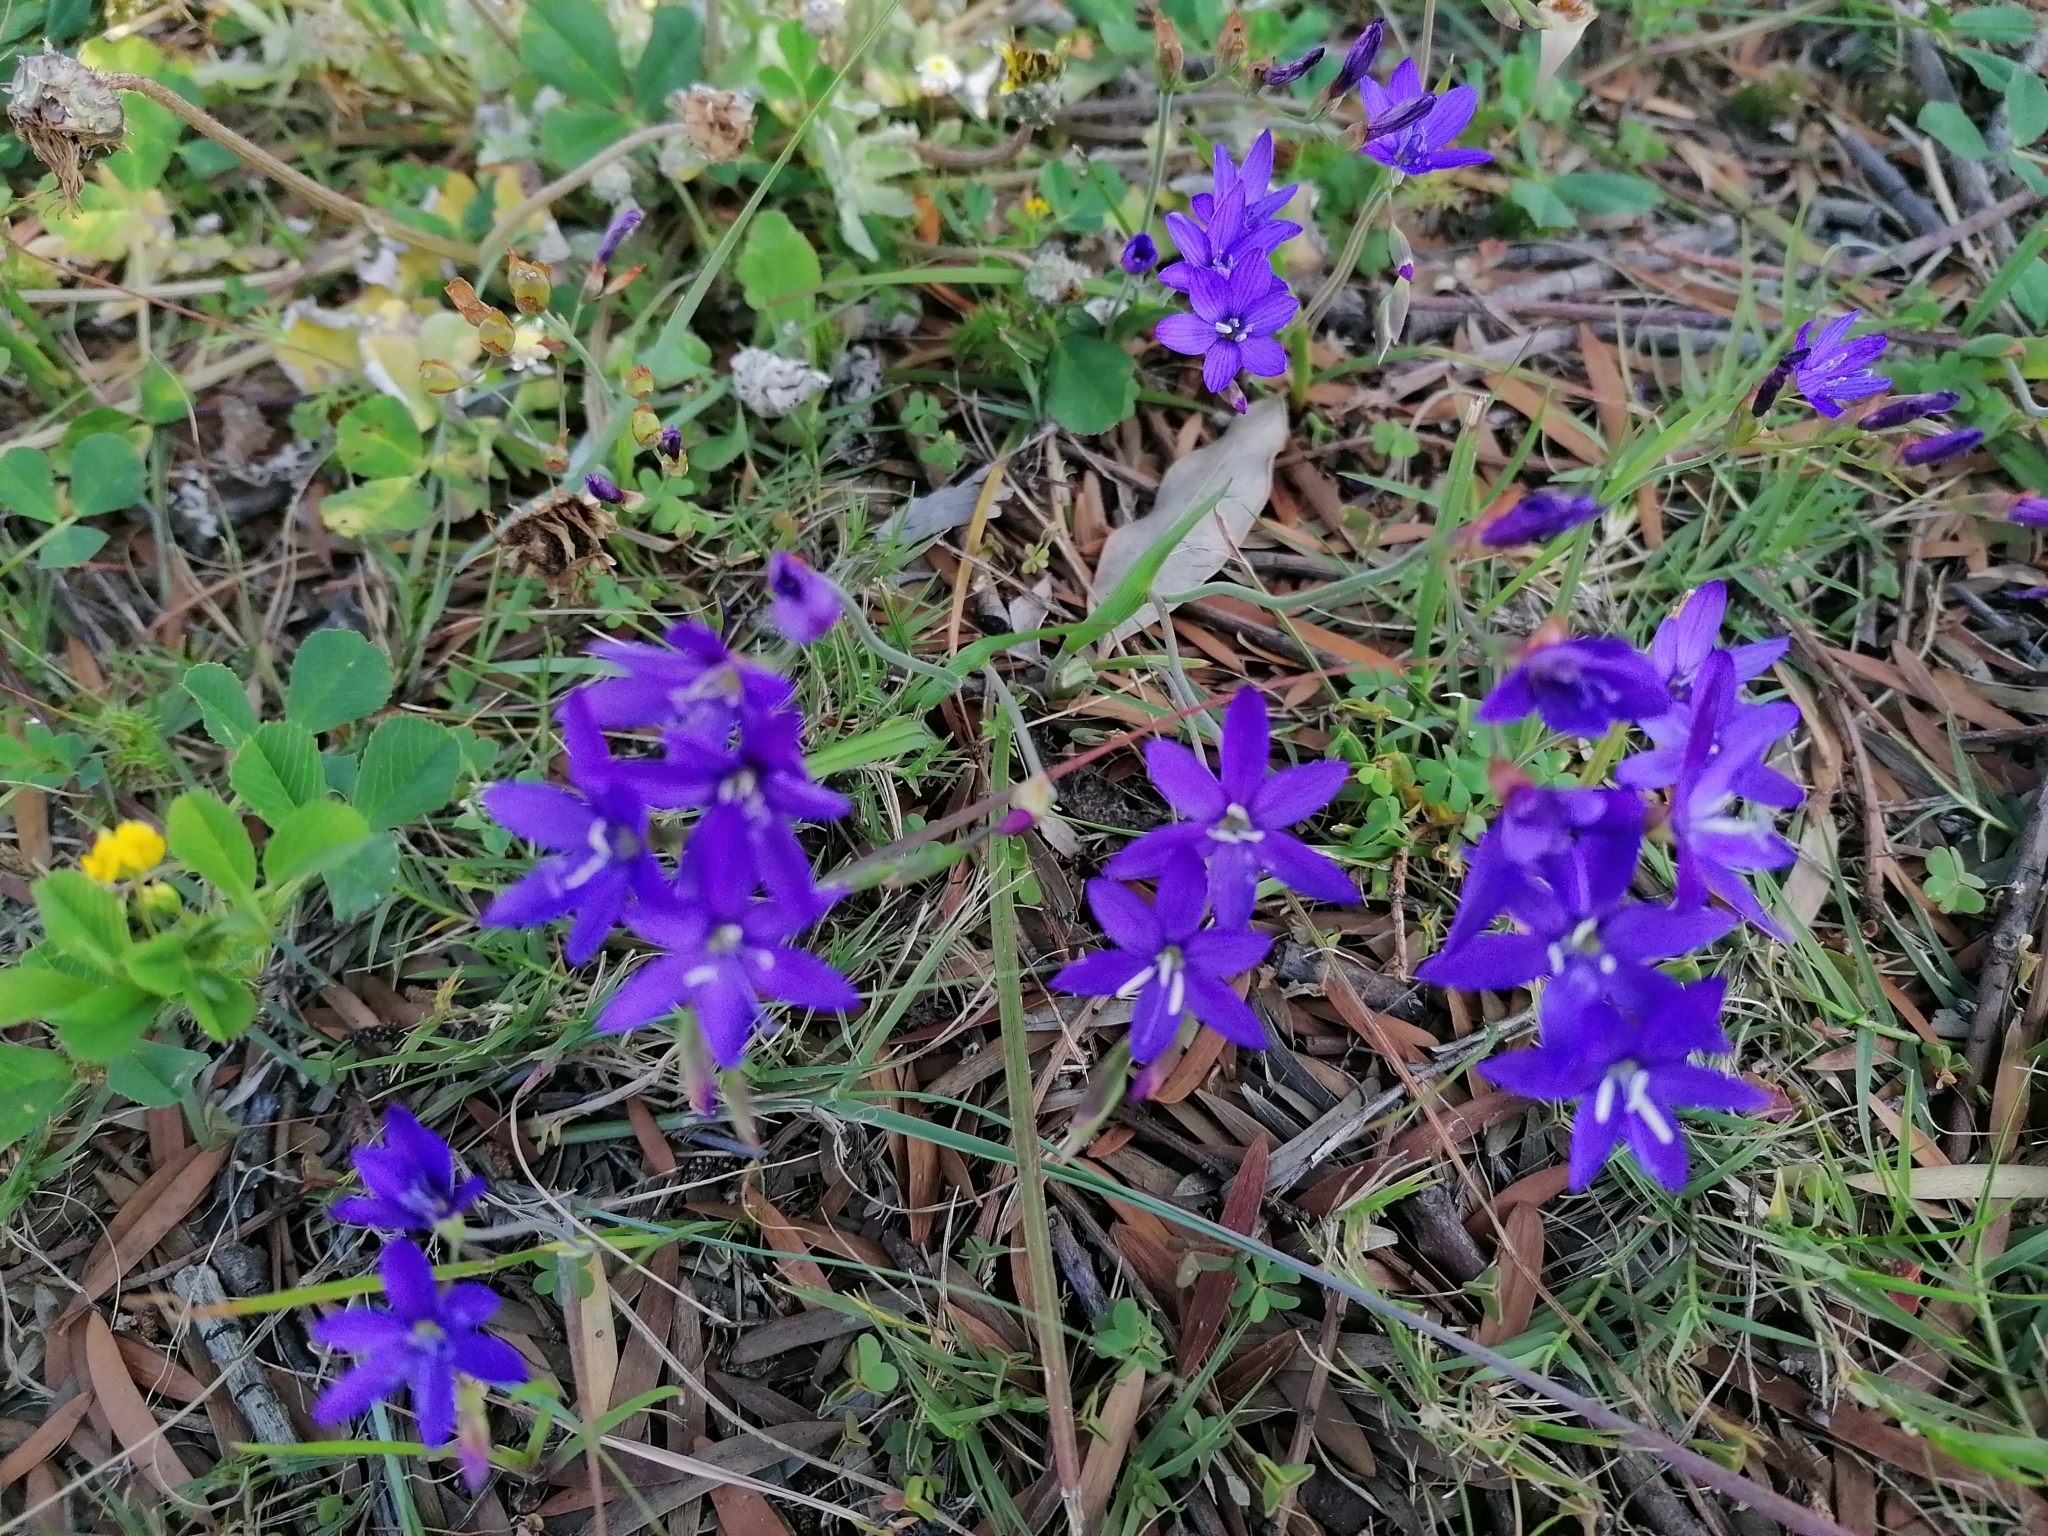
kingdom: Plantae
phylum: Tracheophyta
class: Liliopsida
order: Asparagales
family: Iridaceae
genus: Geissorhiza
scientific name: Geissorhiza aspera
